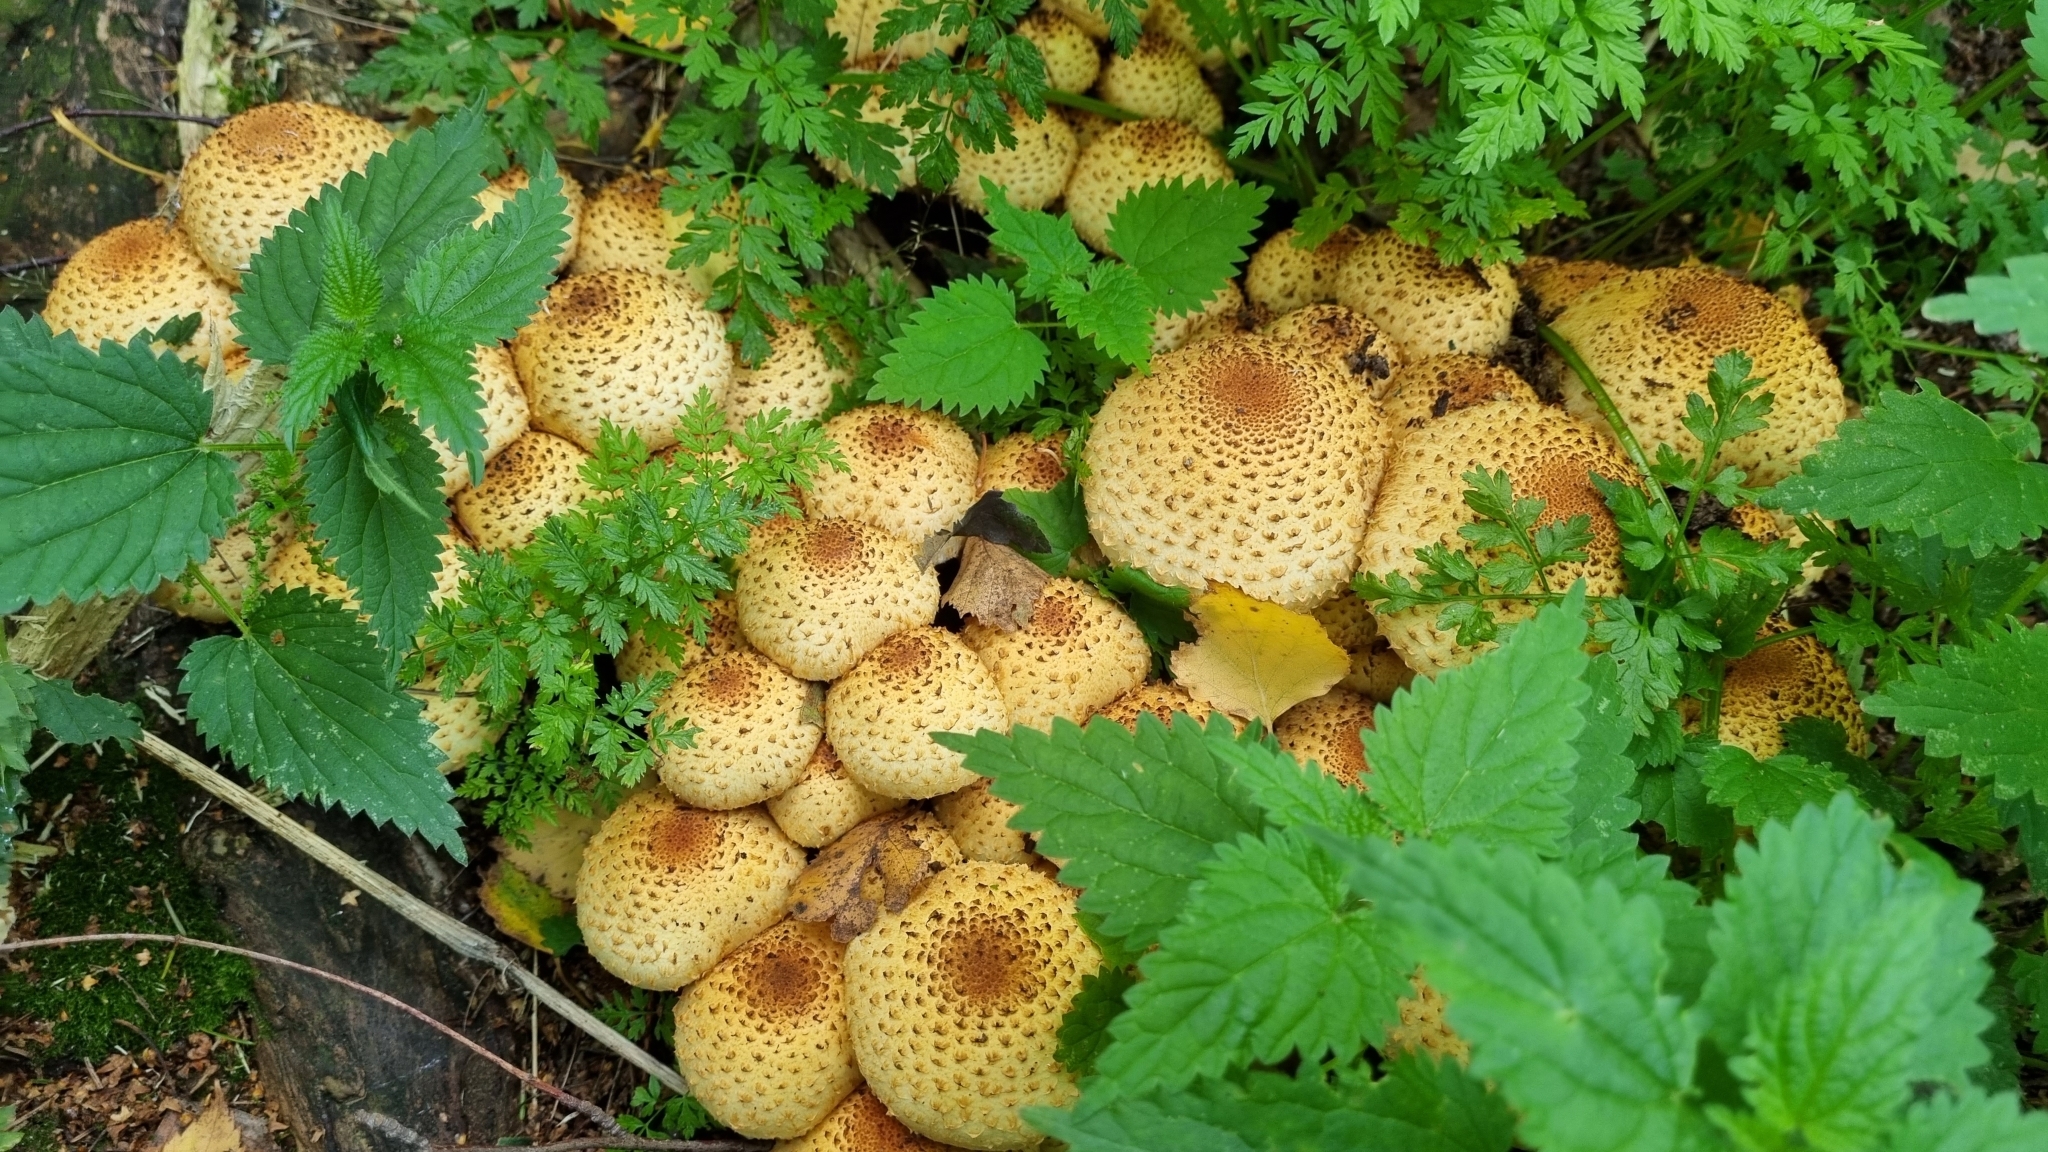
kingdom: Fungi
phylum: Basidiomycota
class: Agaricomycetes
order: Agaricales
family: Strophariaceae
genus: Pholiota
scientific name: Pholiota squarrosa
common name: Shaggy pholiota
